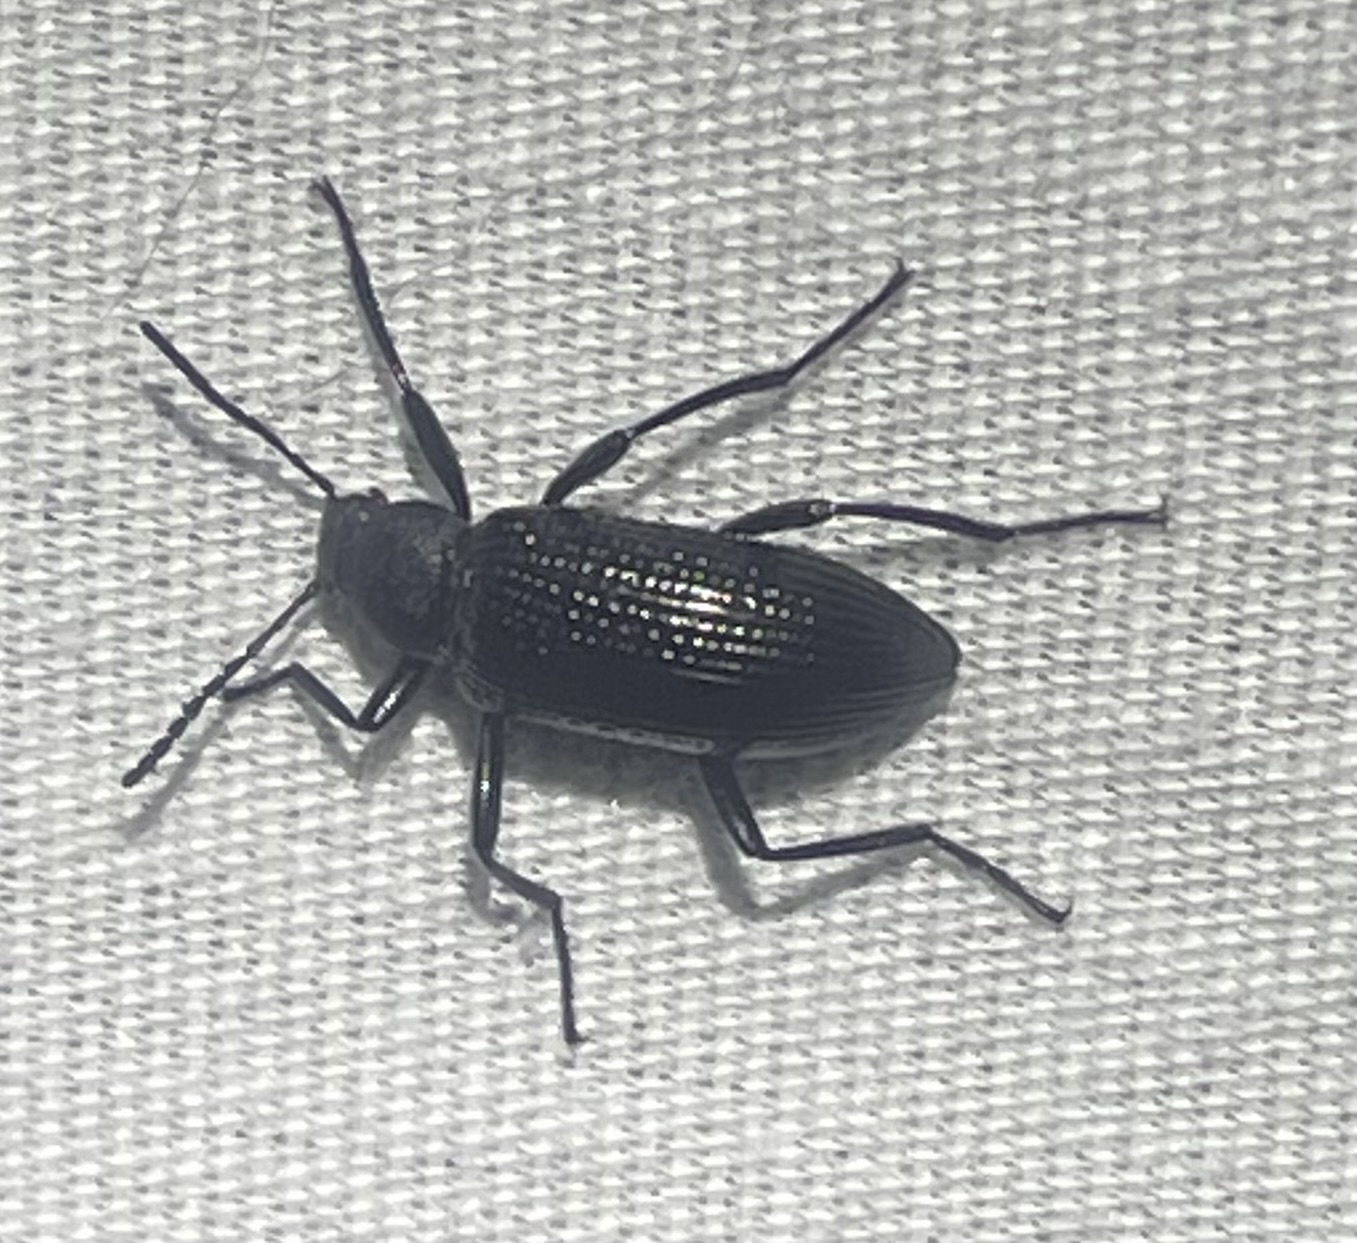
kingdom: Animalia
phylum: Arthropoda
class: Insecta
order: Coleoptera
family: Tenebrionidae
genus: Strongylium
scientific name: Strongylium hemistriatum
